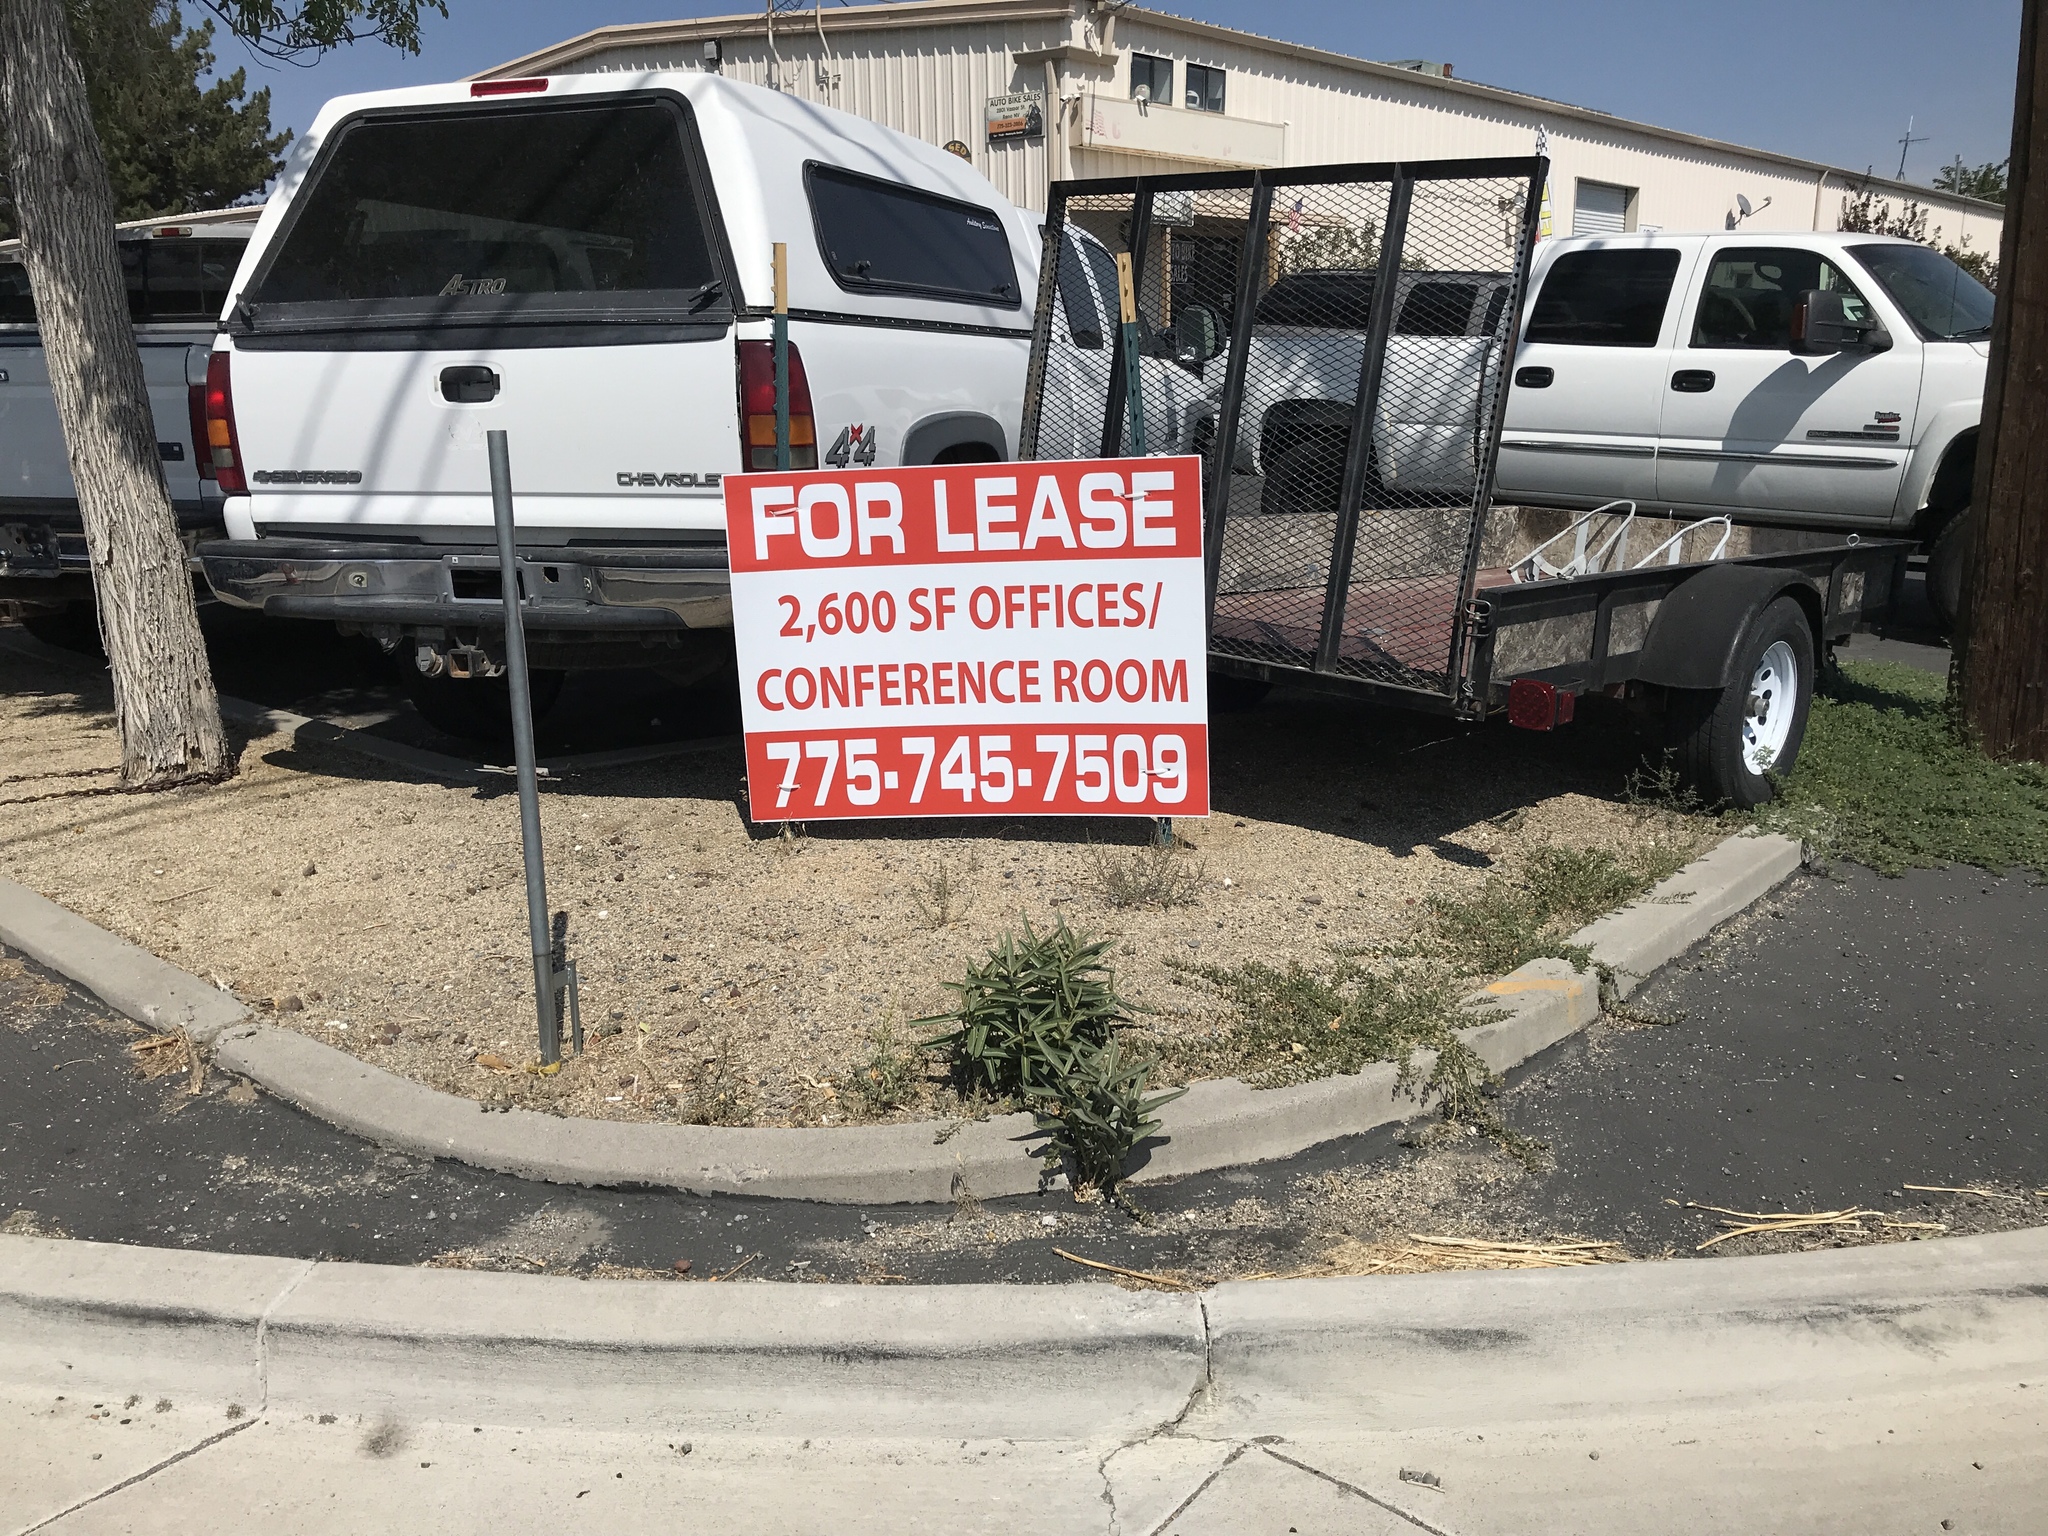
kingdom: Plantae
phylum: Tracheophyta
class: Magnoliopsida
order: Gentianales
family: Apocynaceae
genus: Asclepias
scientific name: Asclepias speciosa
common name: Showy milkweed
